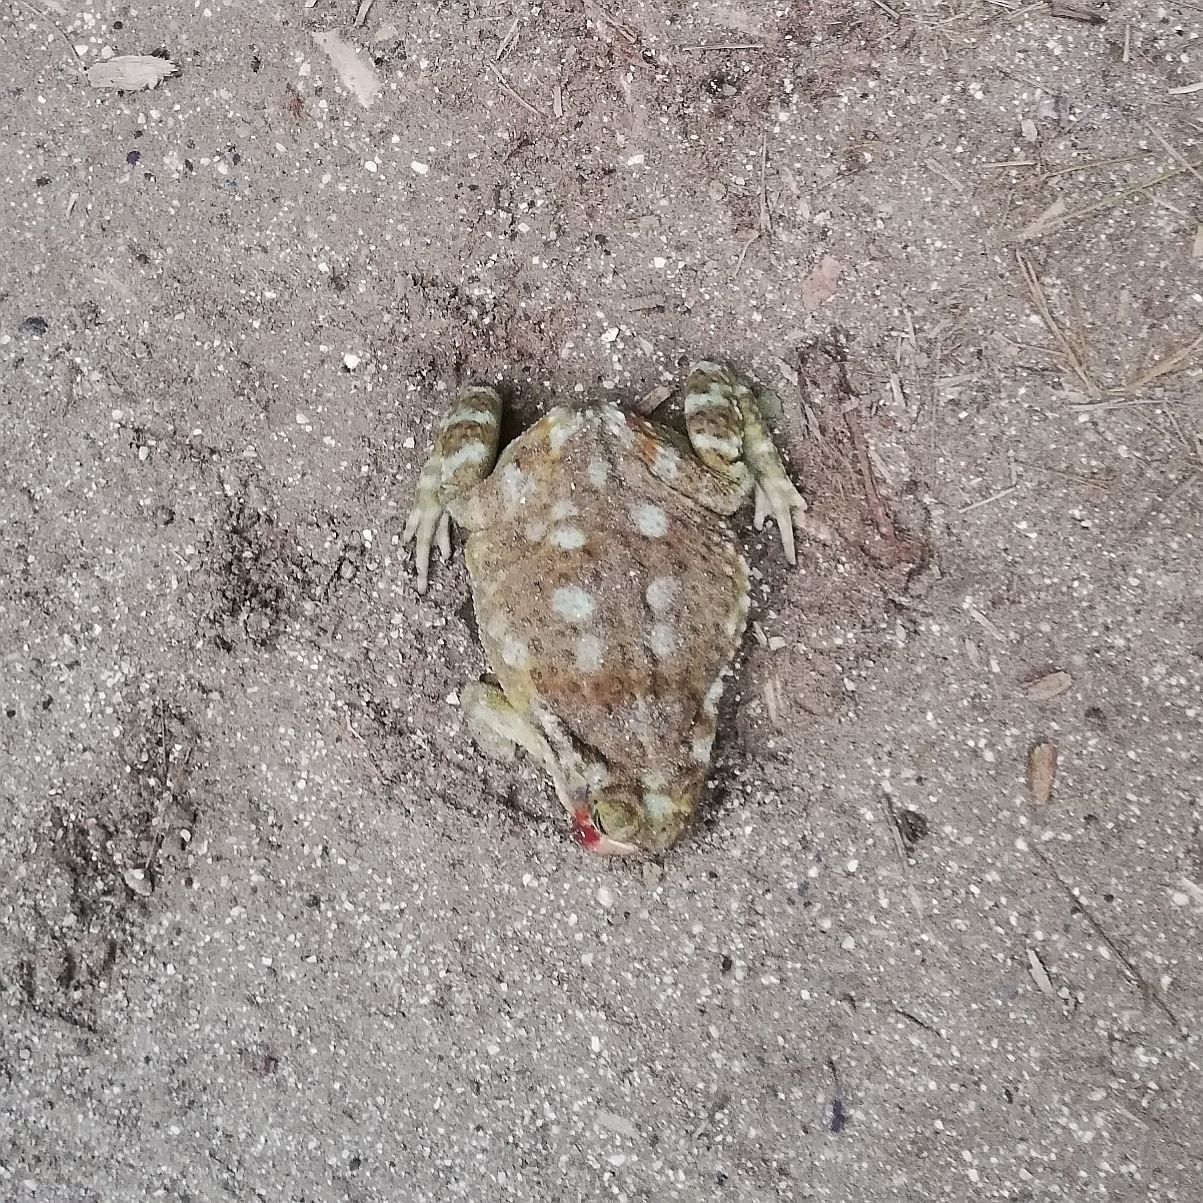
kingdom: Animalia
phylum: Chordata
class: Amphibia
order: Anura
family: Bufonidae
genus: Rhinella
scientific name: Rhinella arenarum
